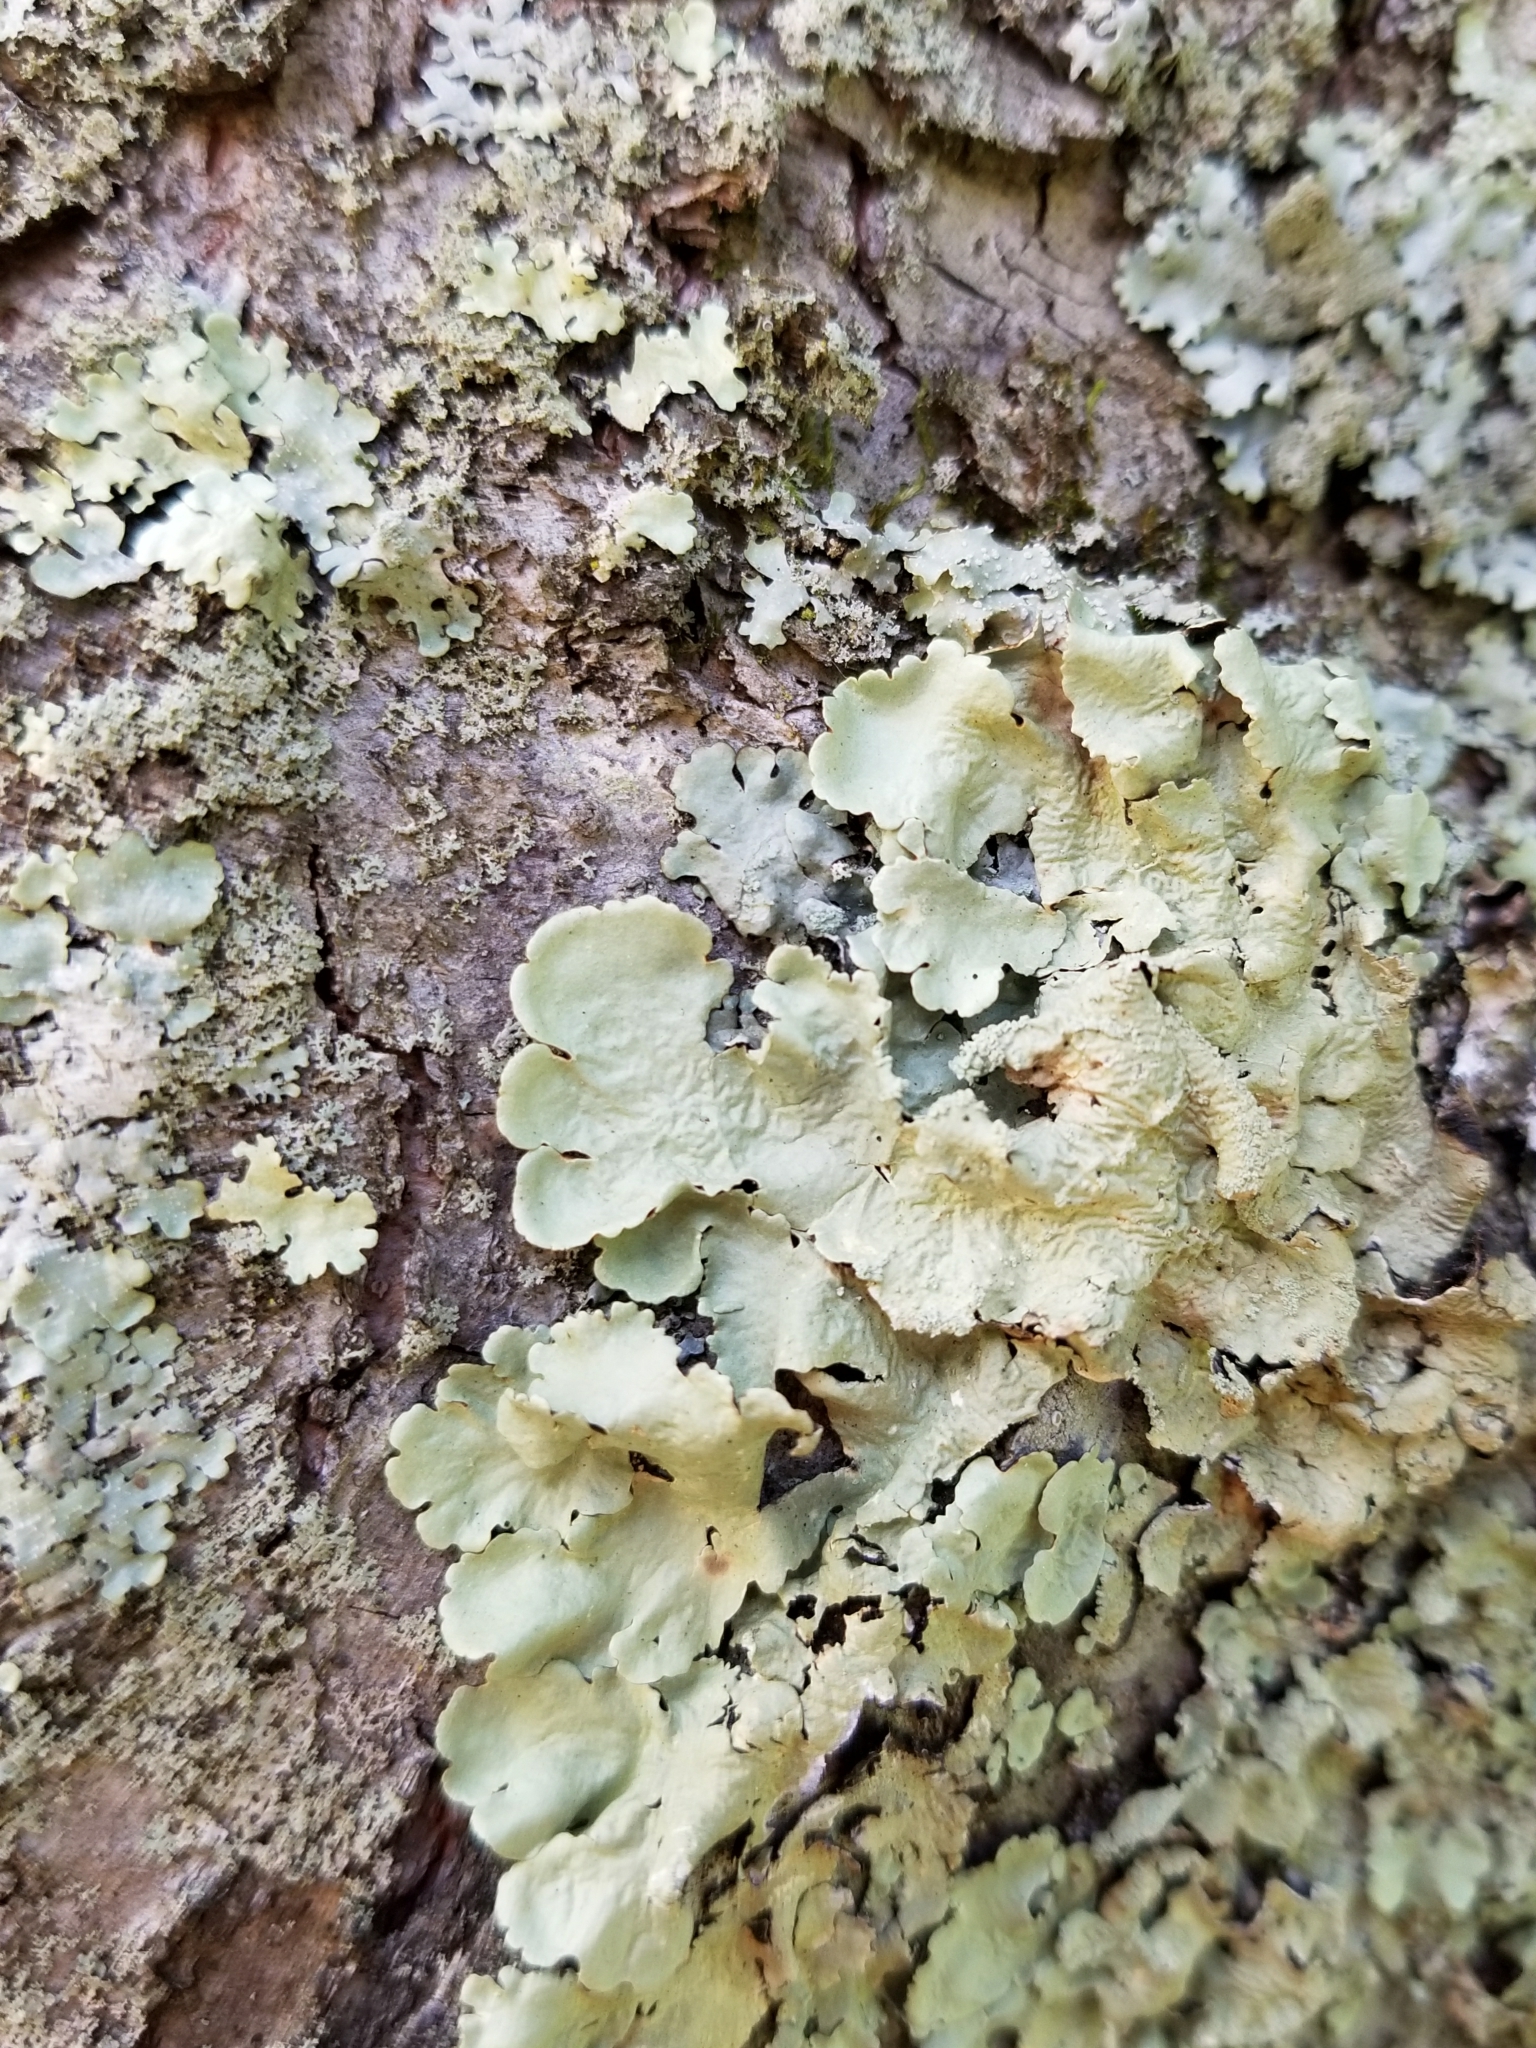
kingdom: Fungi
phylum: Ascomycota
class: Lecanoromycetes
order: Lecanorales
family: Parmeliaceae
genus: Flavoparmelia
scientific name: Flavoparmelia caperata
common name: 40-mile per hour lichen
